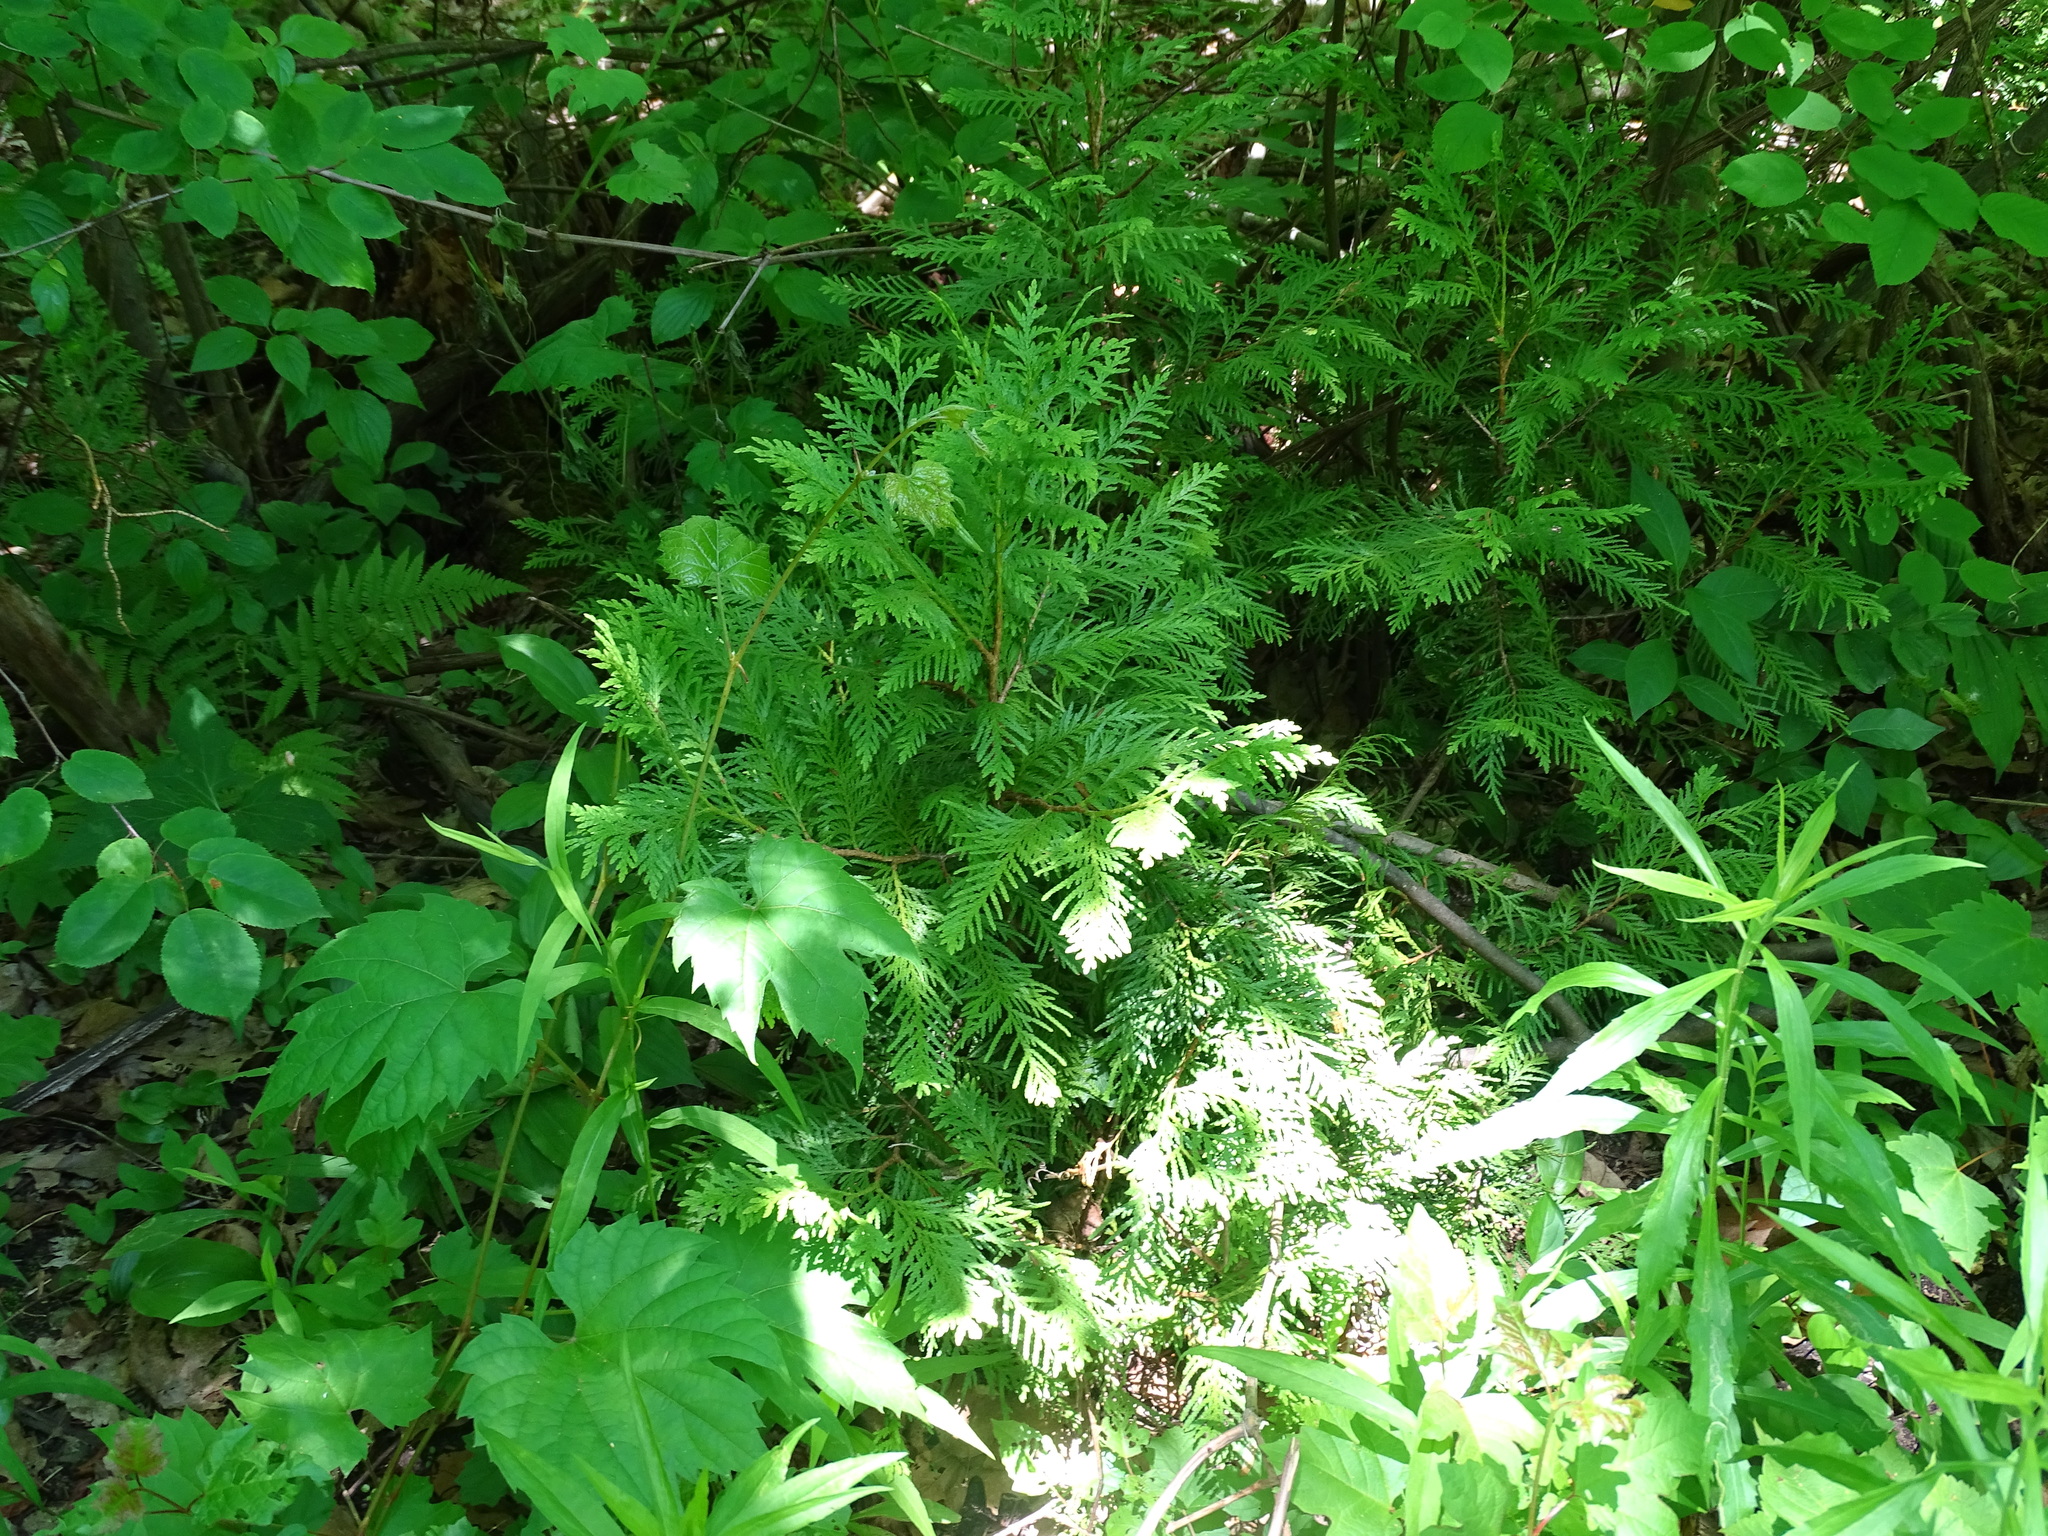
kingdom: Plantae
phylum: Tracheophyta
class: Pinopsida
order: Pinales
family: Cupressaceae
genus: Thuja
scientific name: Thuja occidentalis
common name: Northern white-cedar
